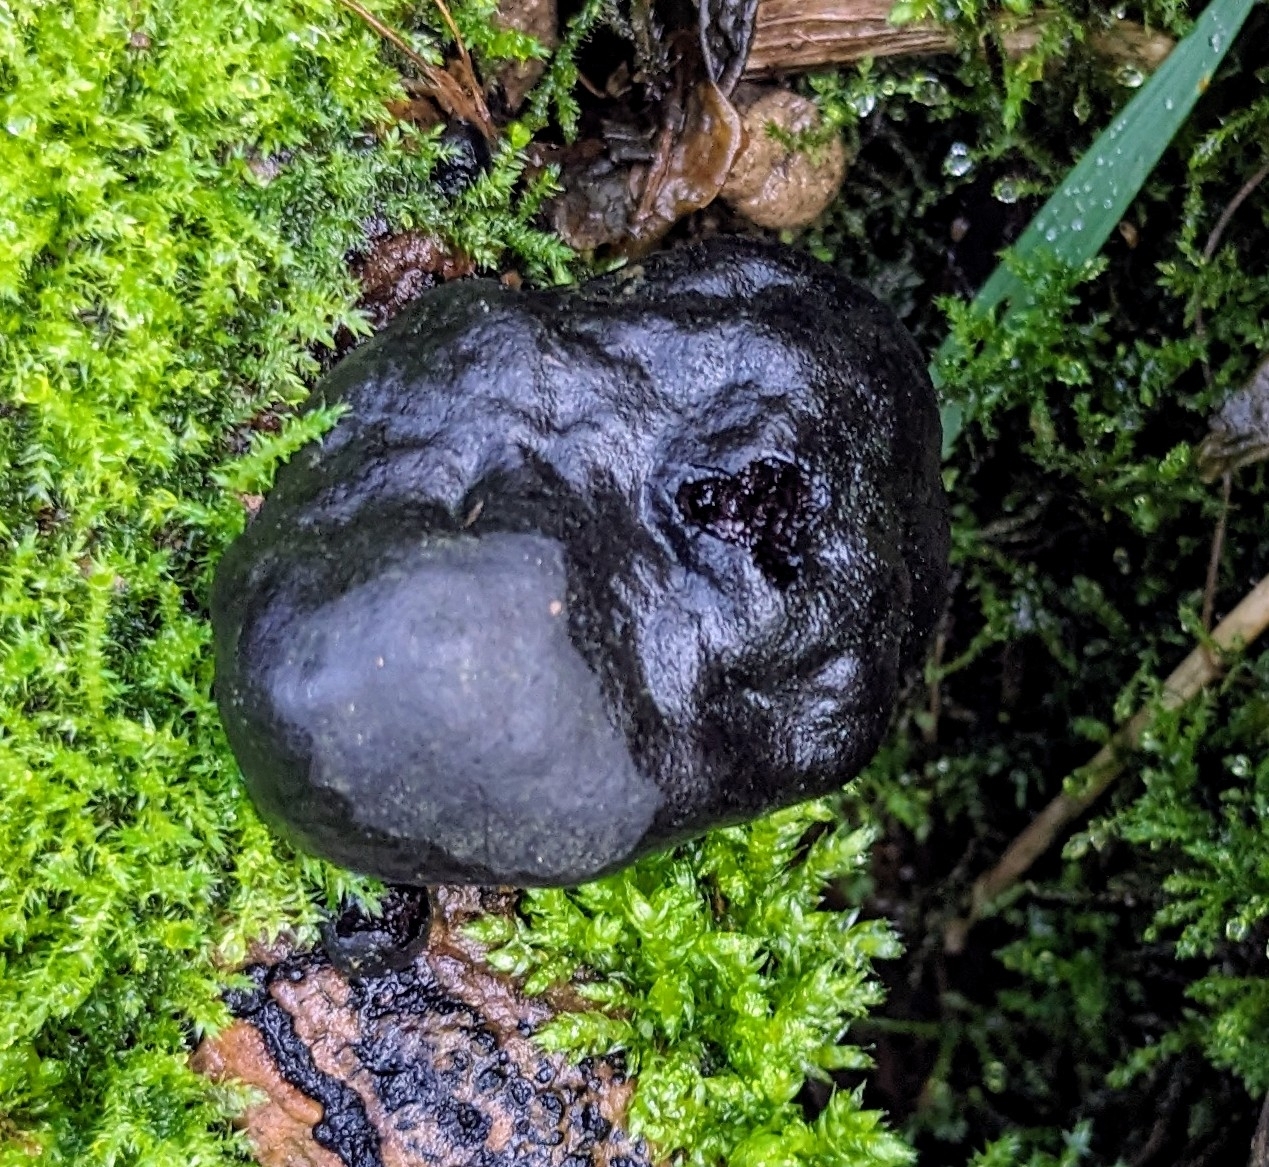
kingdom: Fungi
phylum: Ascomycota
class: Sordariomycetes
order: Xylariales
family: Hypoxylaceae
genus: Daldinia
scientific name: Daldinia concentrica
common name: Cramp balls
